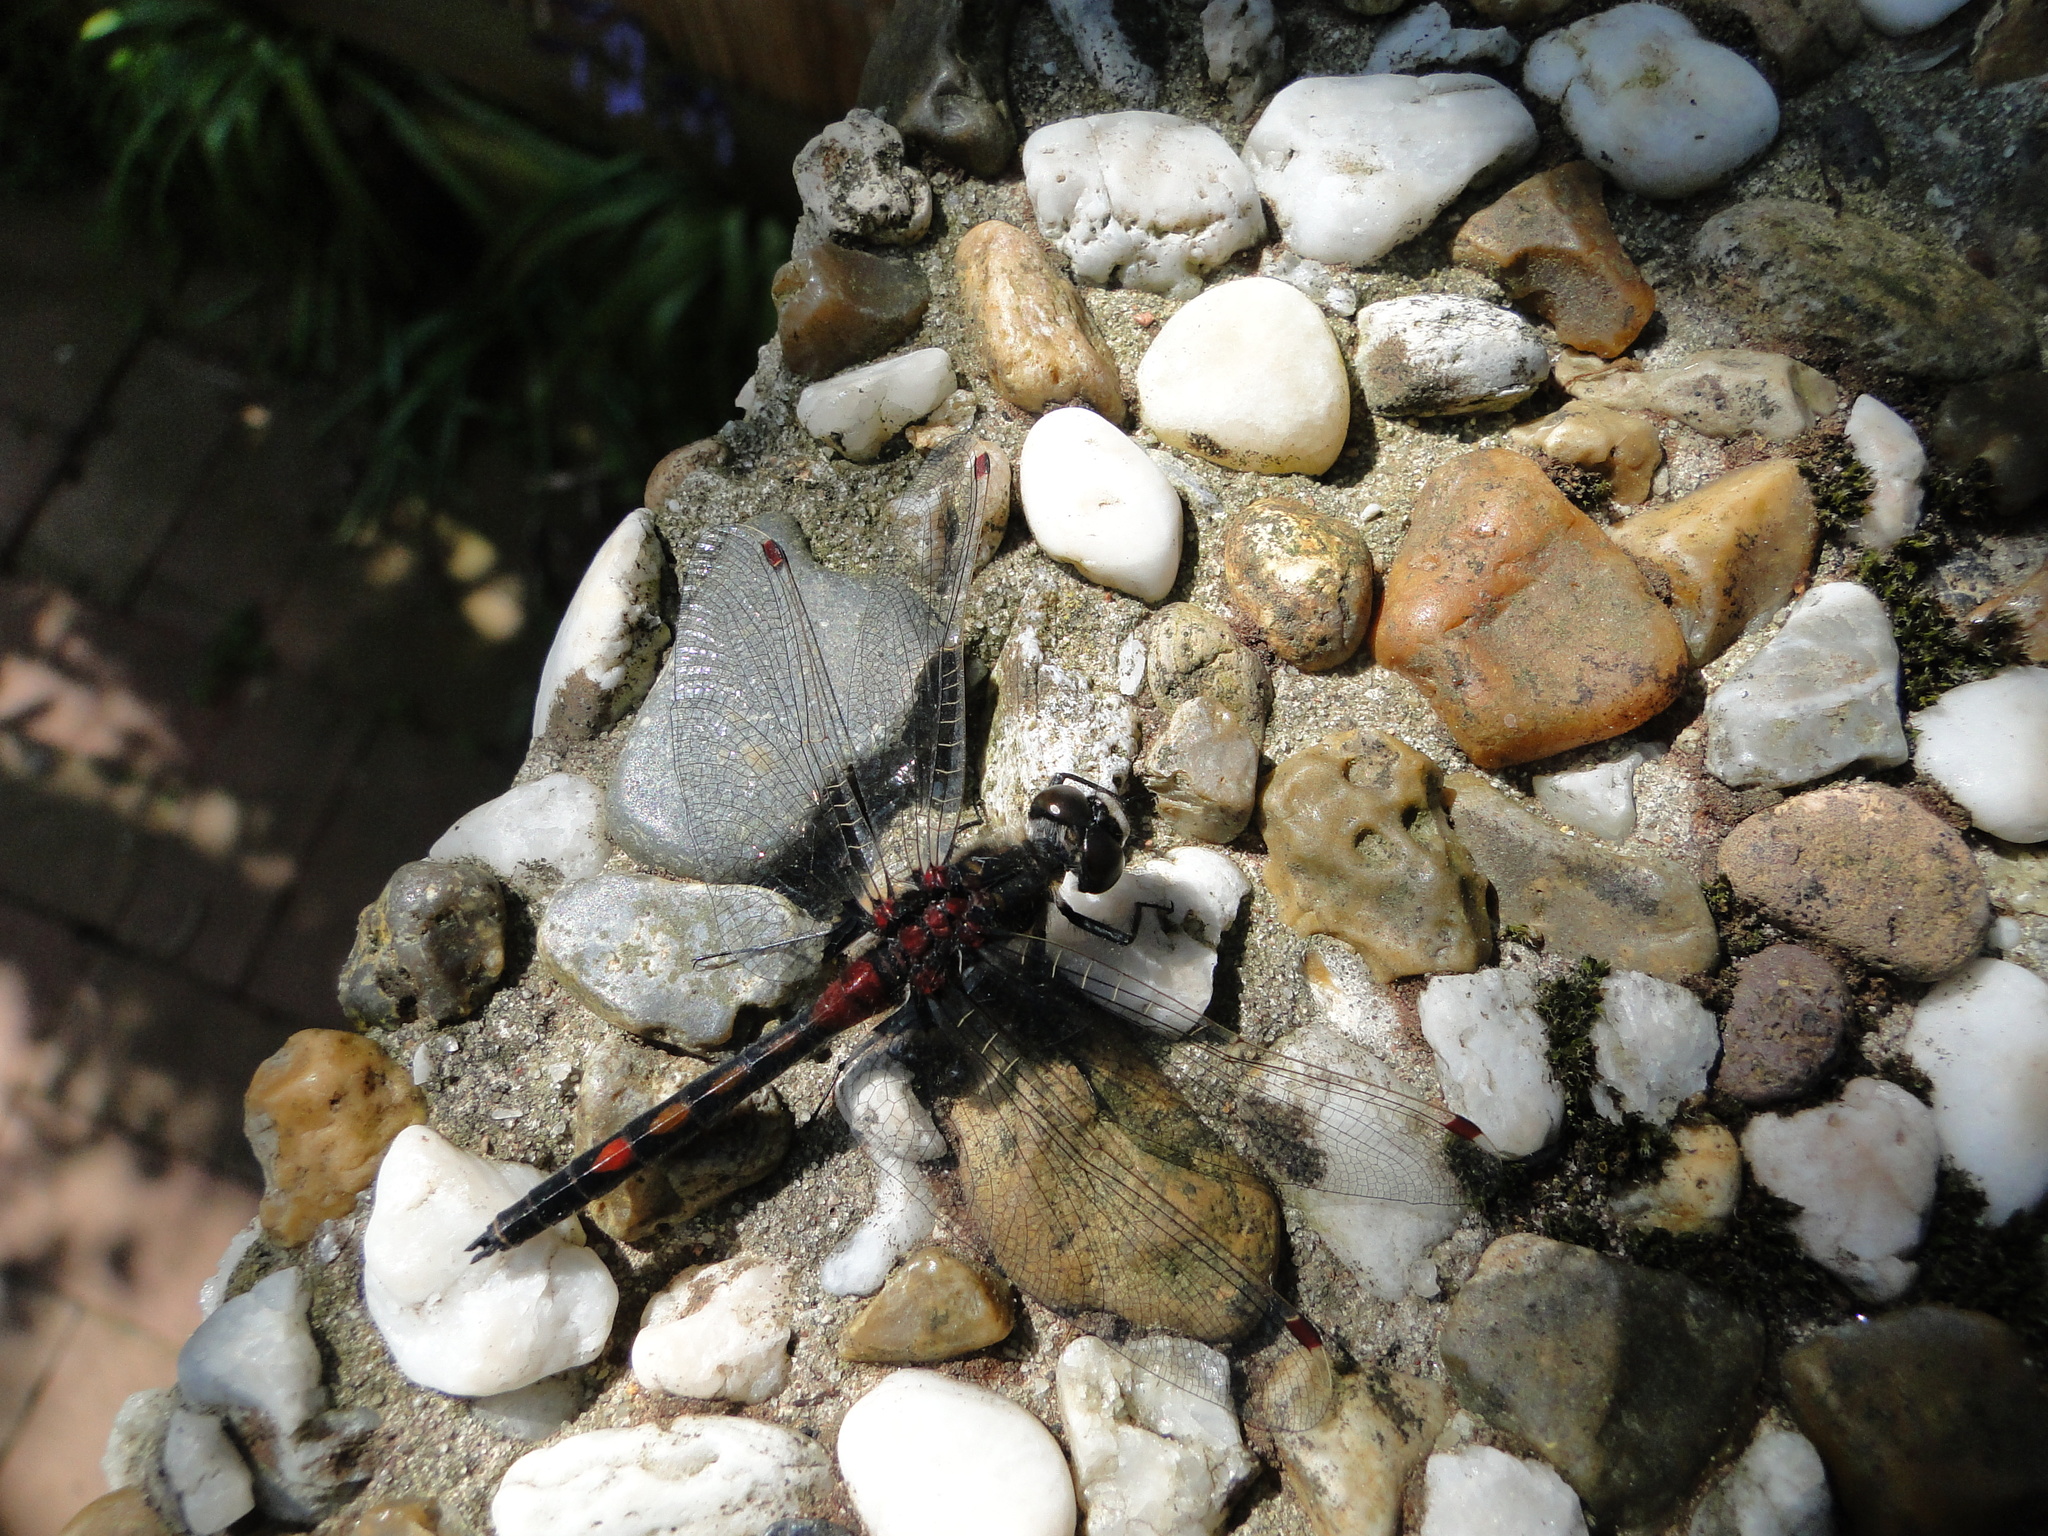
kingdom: Animalia
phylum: Arthropoda
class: Insecta
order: Odonata
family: Libellulidae
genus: Leucorrhinia
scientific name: Leucorrhinia rubicunda
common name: Ruby whiteface
